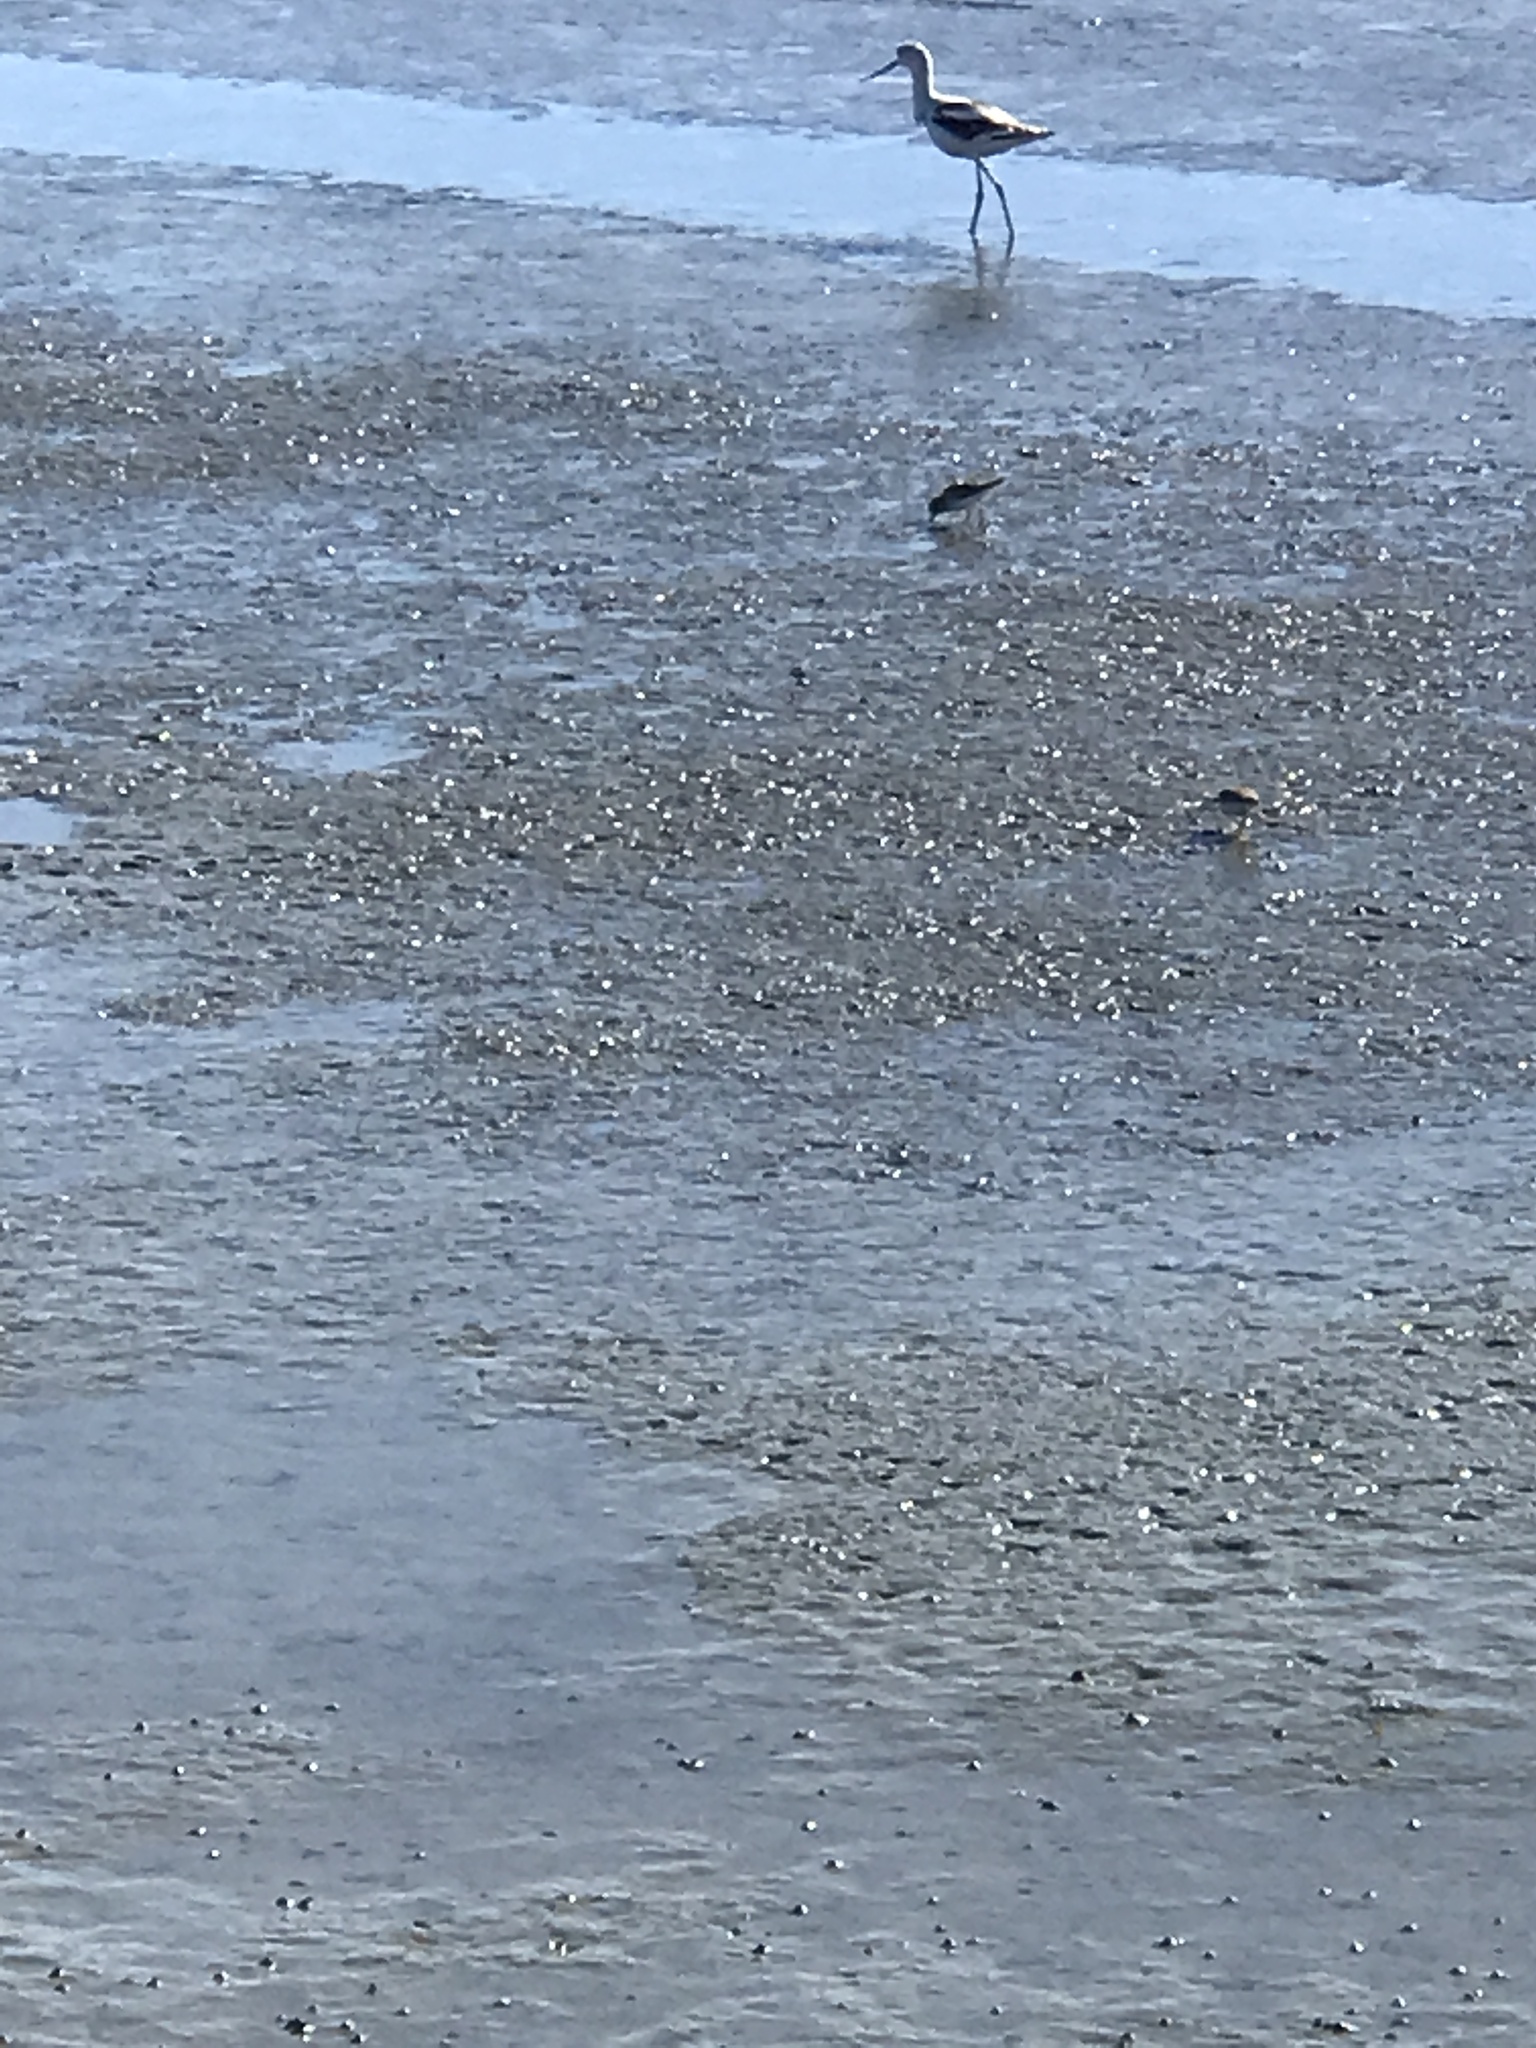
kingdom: Animalia
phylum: Chordata
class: Aves
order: Charadriiformes
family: Recurvirostridae
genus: Recurvirostra
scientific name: Recurvirostra americana
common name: American avocet
